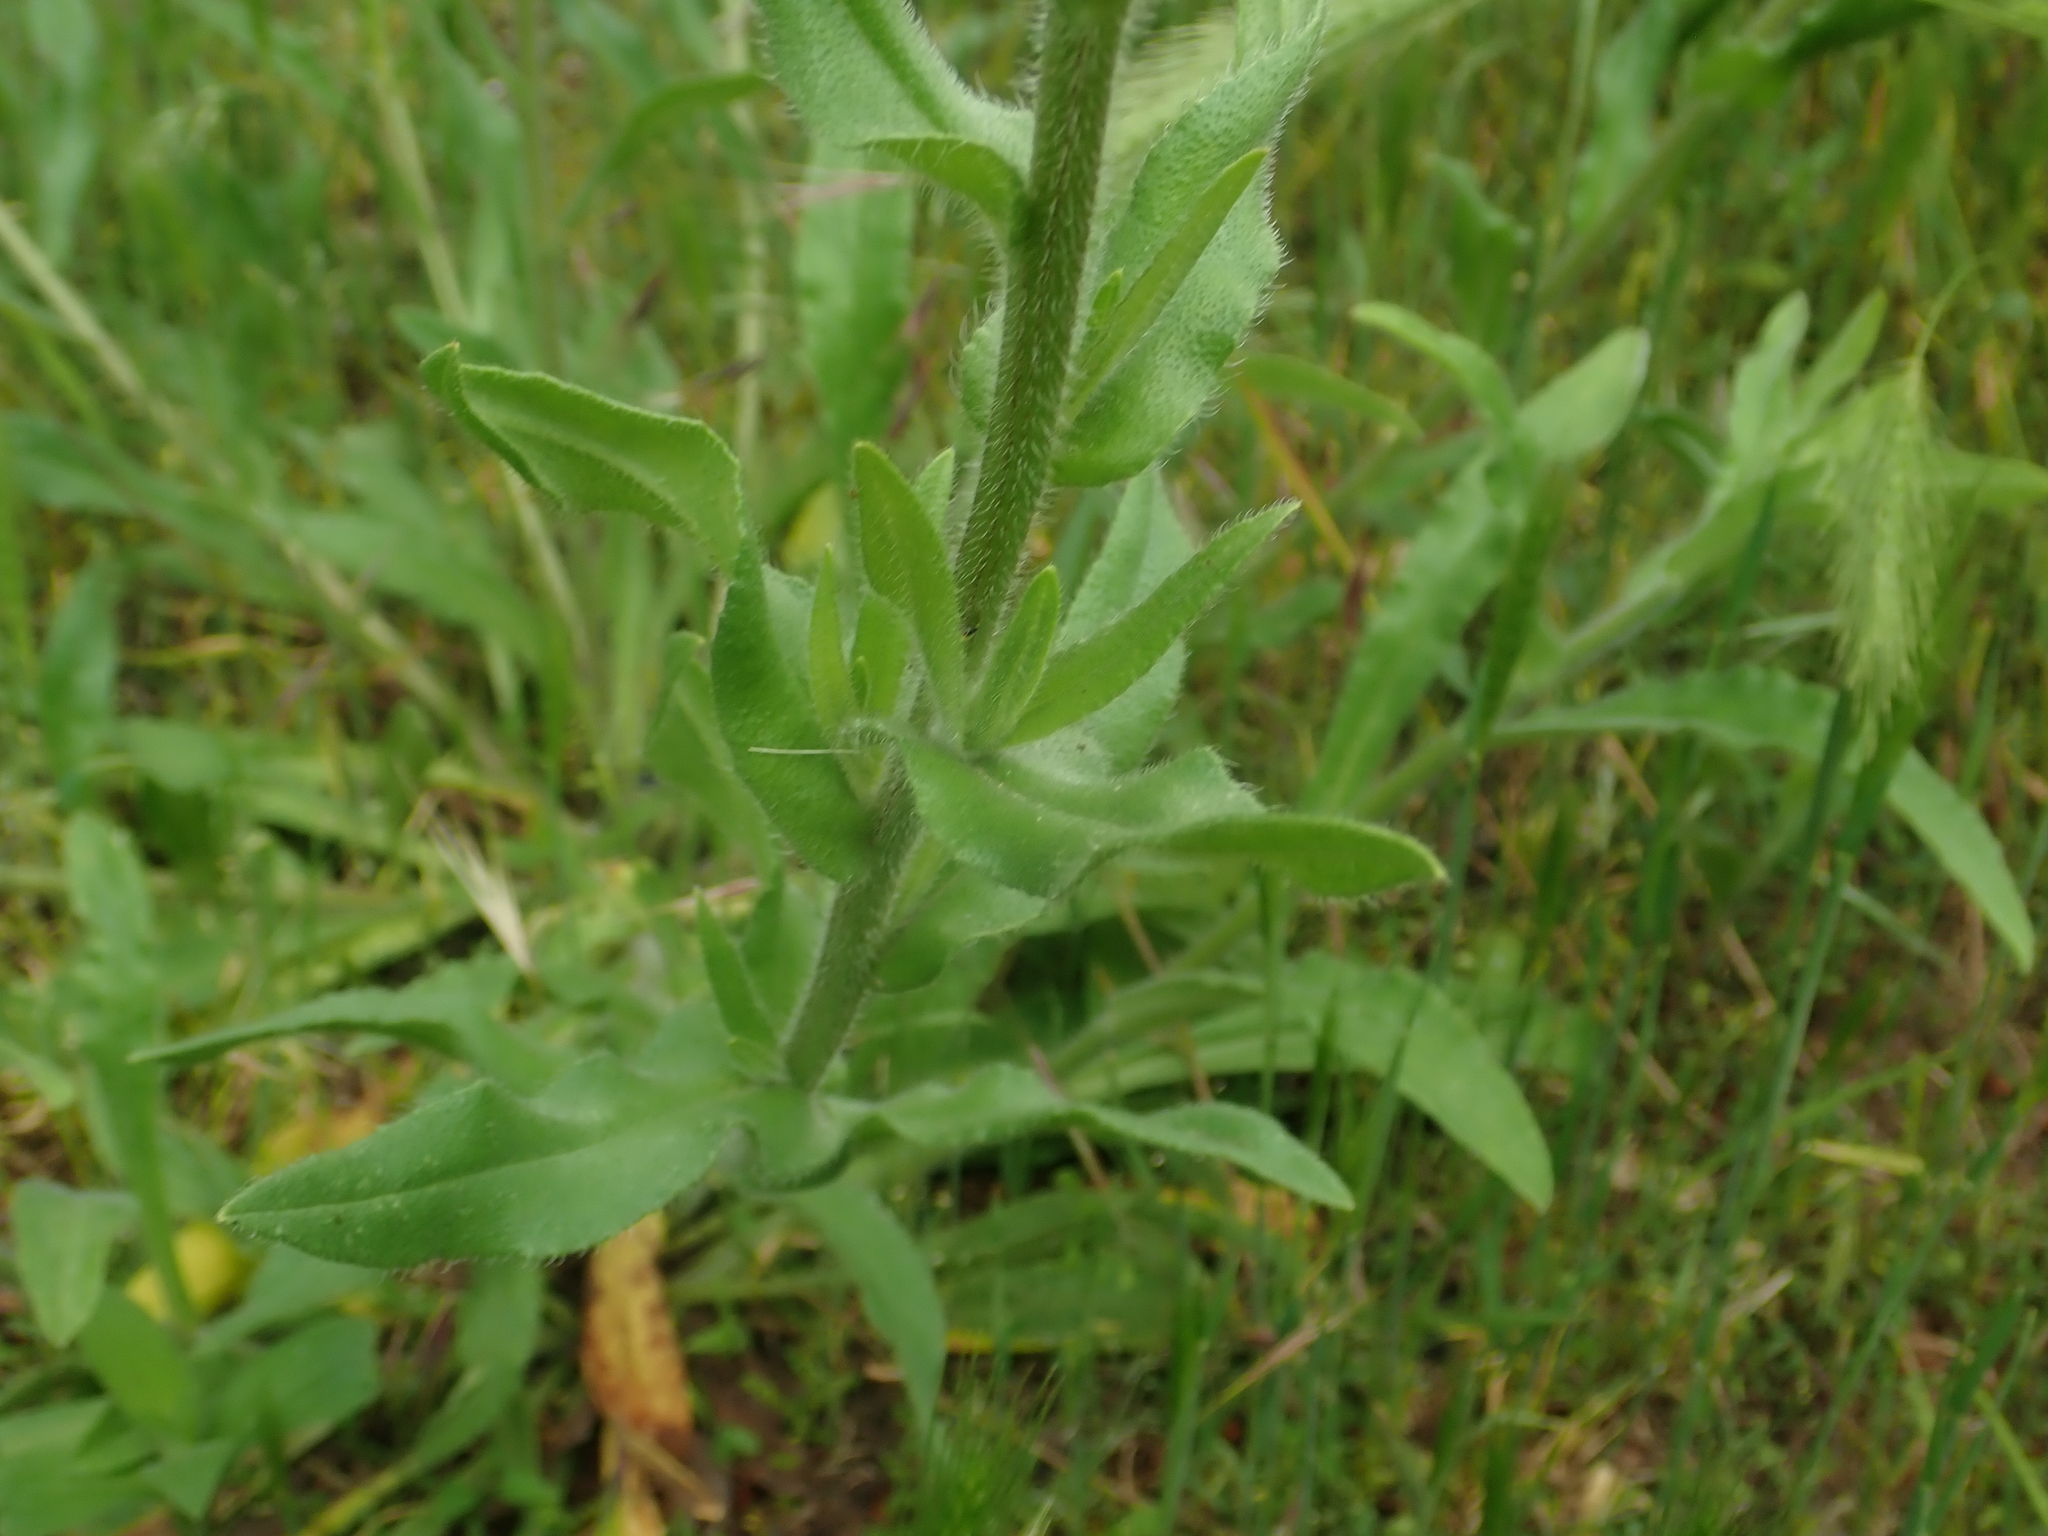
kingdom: Plantae
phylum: Tracheophyta
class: Magnoliopsida
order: Boraginales
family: Boraginaceae
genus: Anchusa
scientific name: Anchusa officinalis
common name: Alkanet
